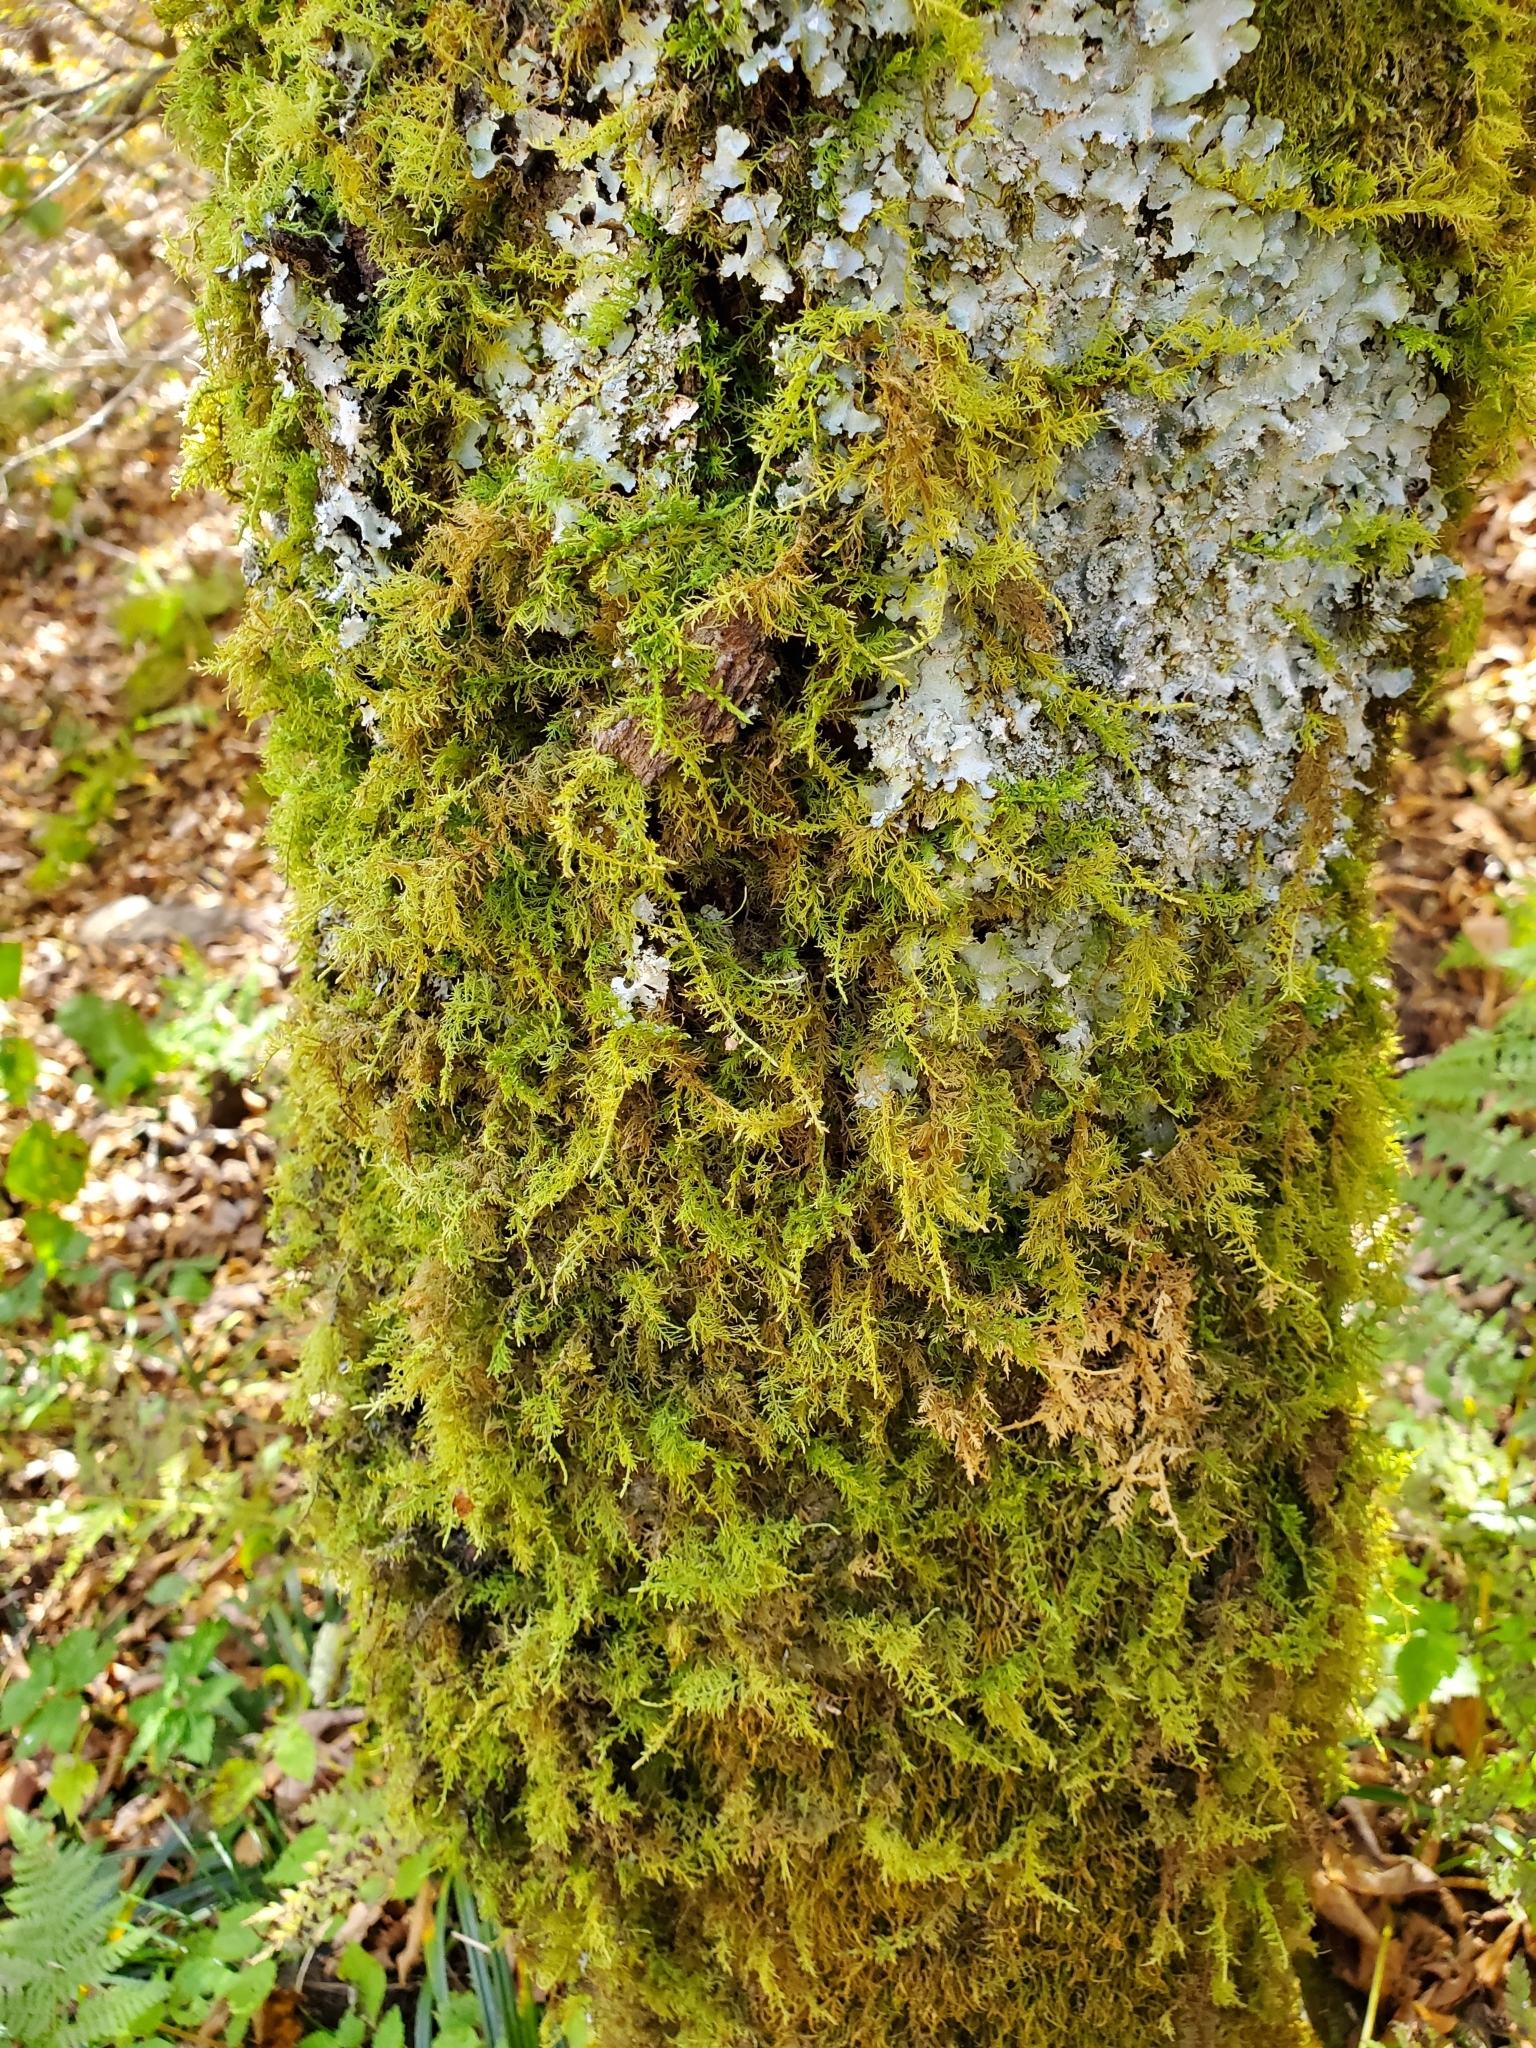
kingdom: Plantae
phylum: Bryophyta
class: Bryopsida
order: Hypnales
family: Thuidiaceae
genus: Thuidium
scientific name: Thuidium delicatulum
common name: Delicate fern moss
